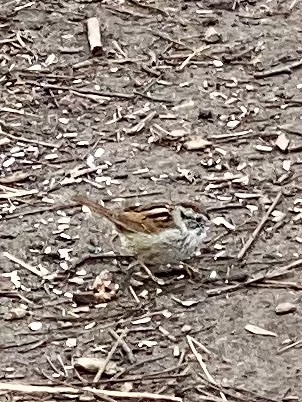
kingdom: Animalia
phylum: Chordata
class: Aves
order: Passeriformes
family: Passerellidae
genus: Melospiza
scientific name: Melospiza georgiana
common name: Swamp sparrow
